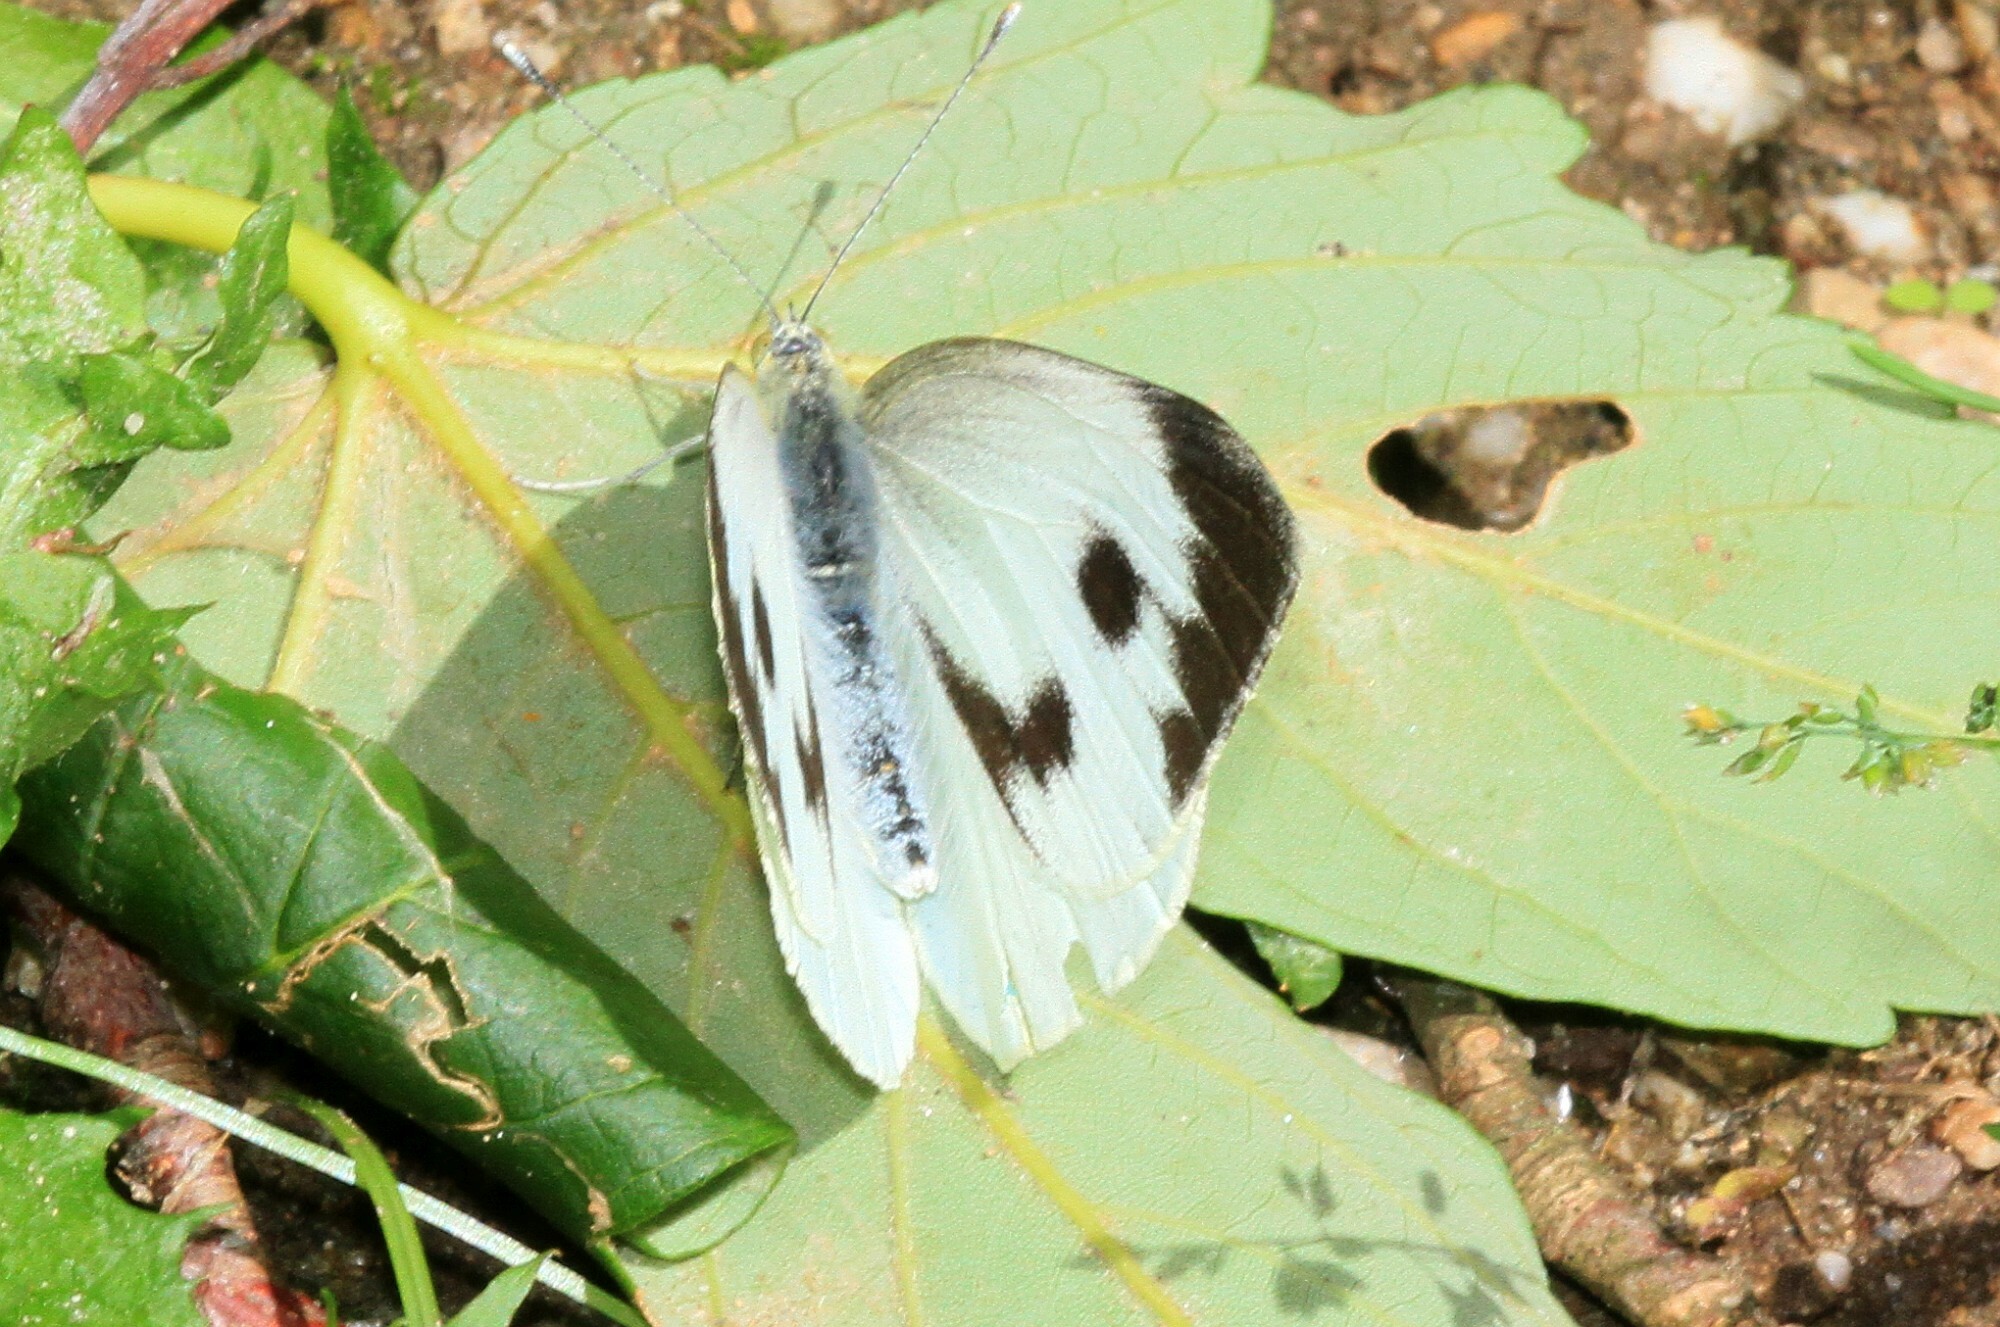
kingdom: Animalia
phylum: Arthropoda
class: Insecta
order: Lepidoptera
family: Pieridae
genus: Pieris
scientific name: Pieris brassicae
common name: Large white
